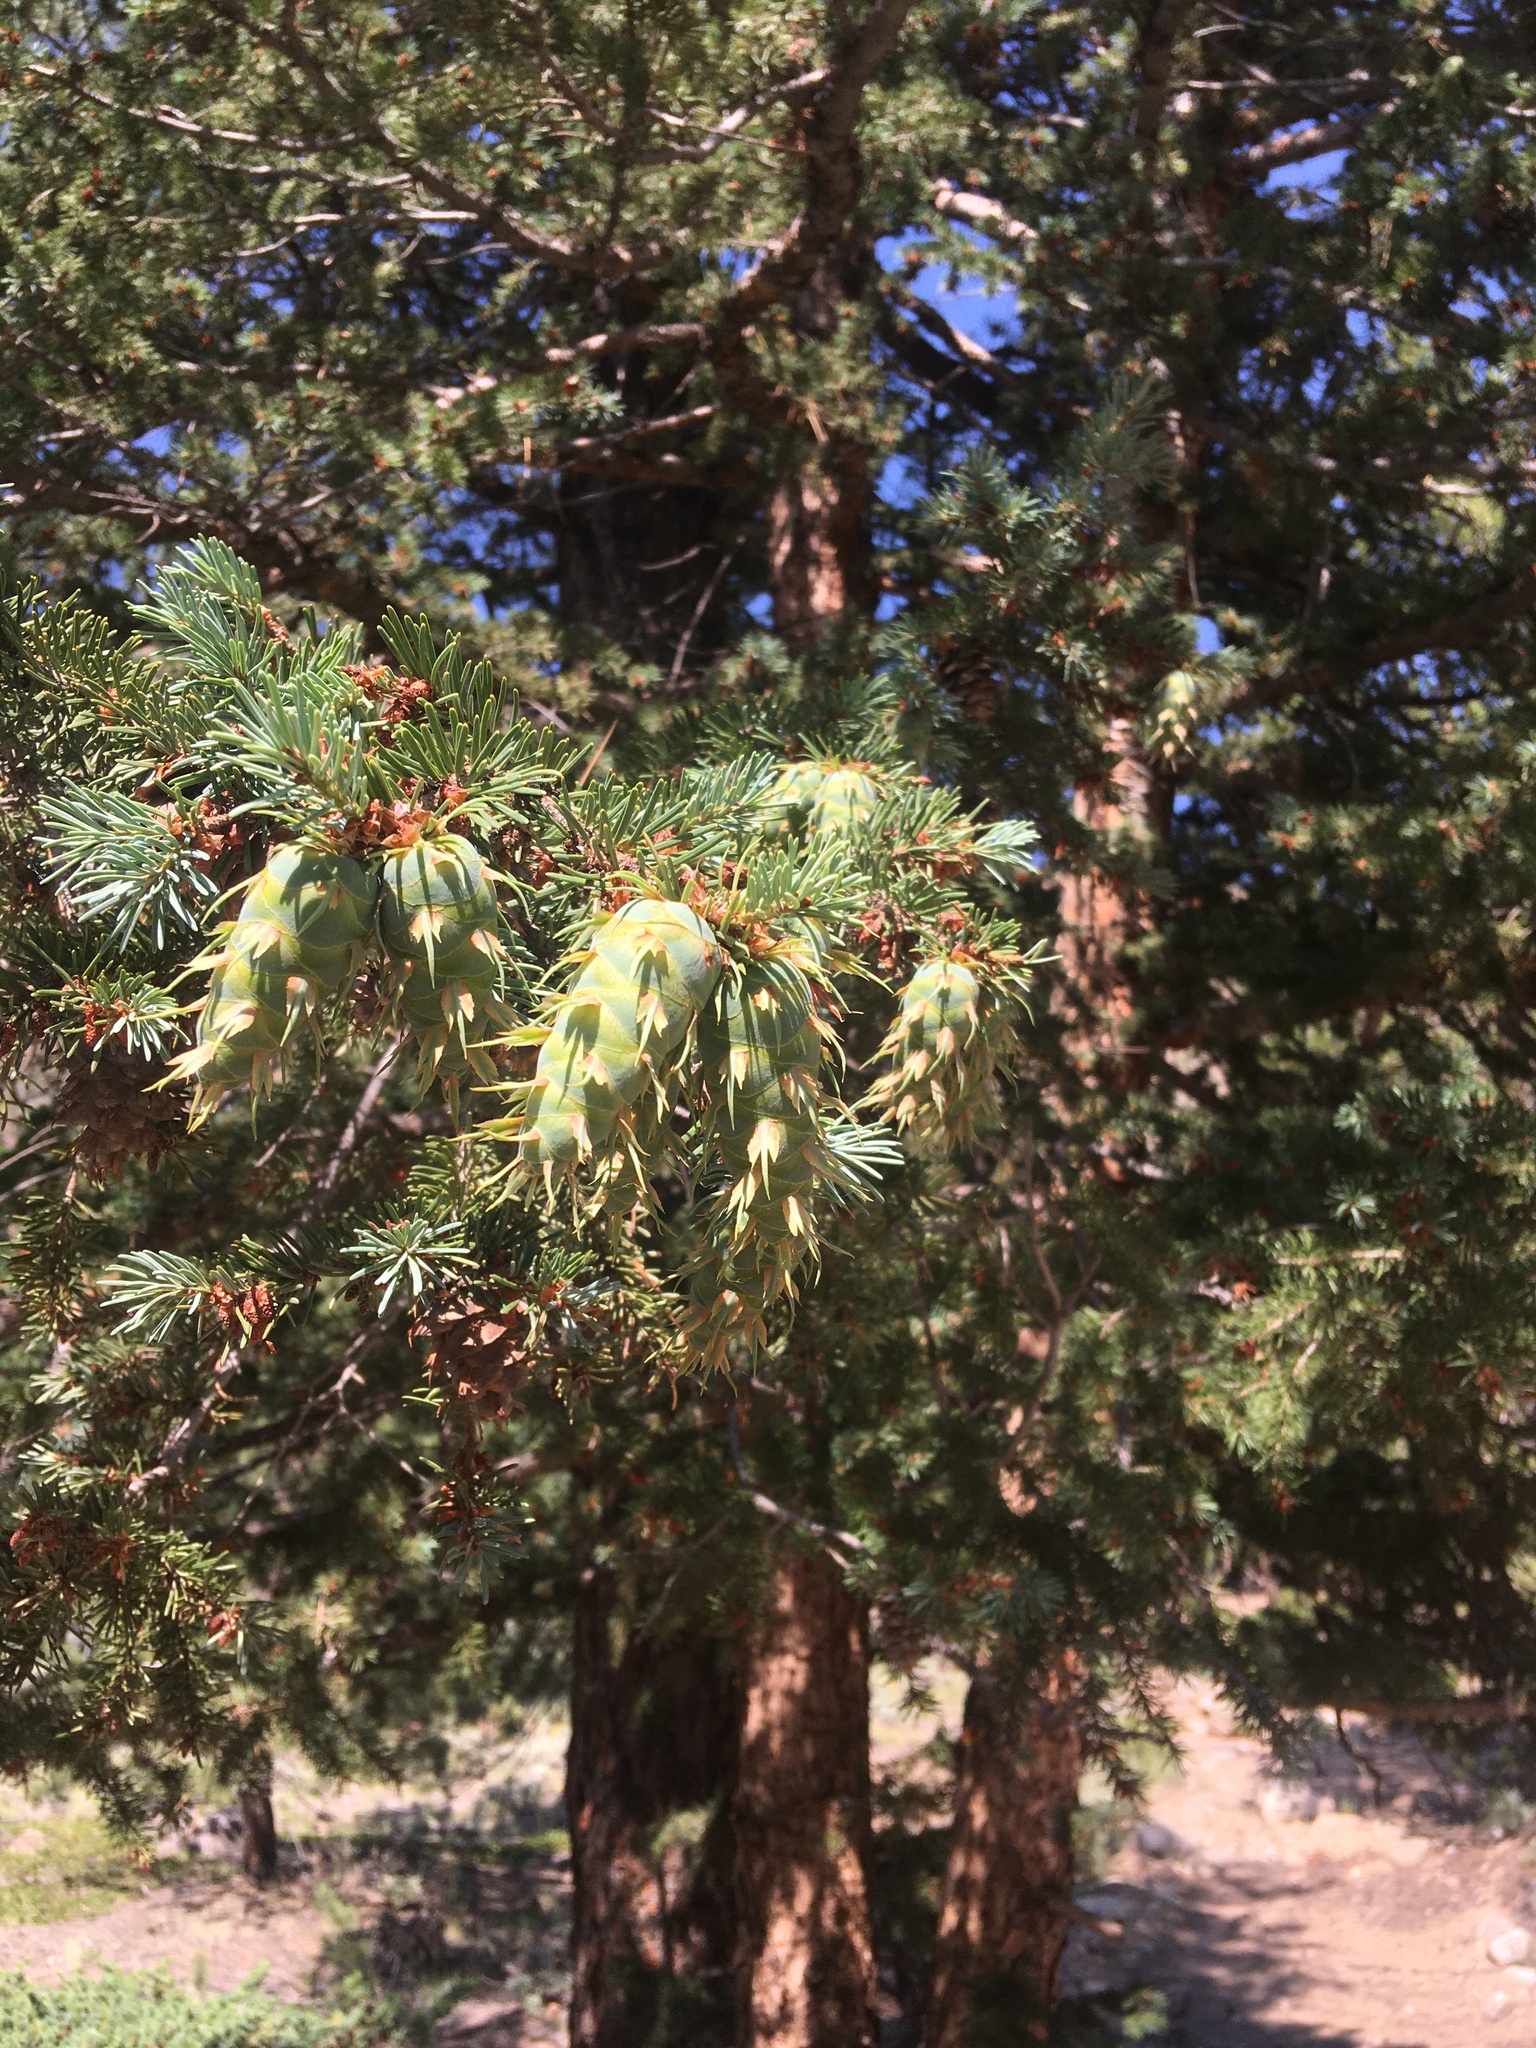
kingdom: Plantae
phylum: Tracheophyta
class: Pinopsida
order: Pinales
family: Pinaceae
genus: Pseudotsuga
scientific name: Pseudotsuga menziesii
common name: Douglas fir
